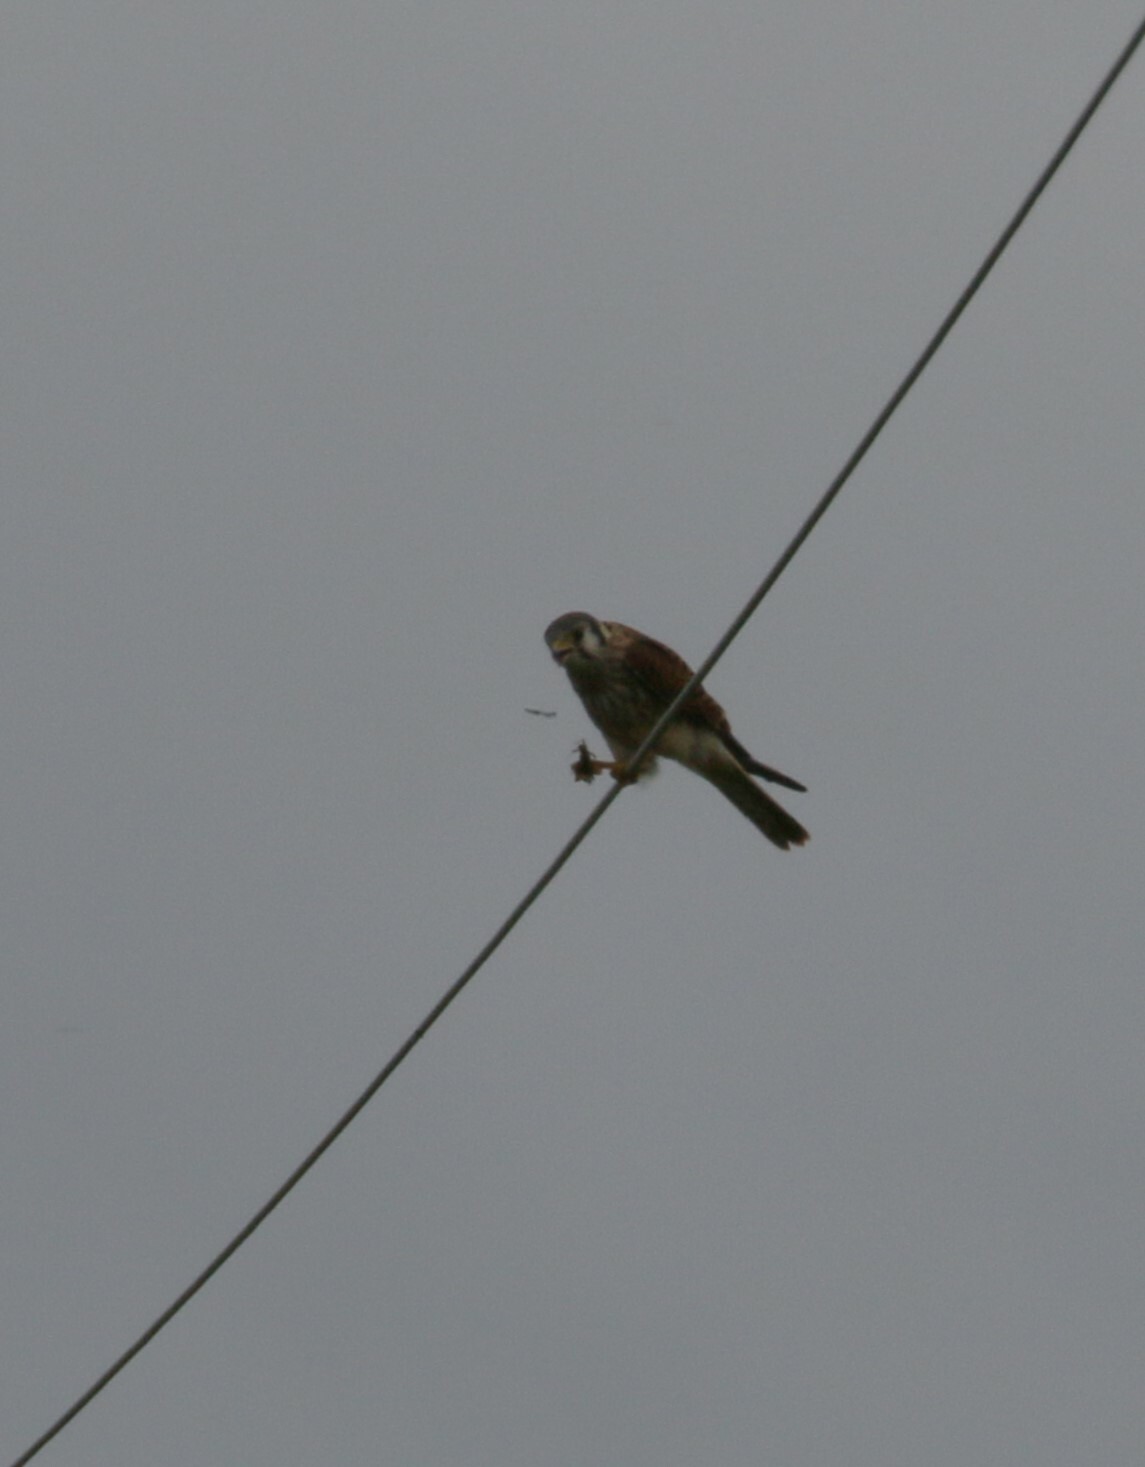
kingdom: Animalia
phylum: Chordata
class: Aves
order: Falconiformes
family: Falconidae
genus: Falco
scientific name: Falco sparverius
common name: American kestrel
